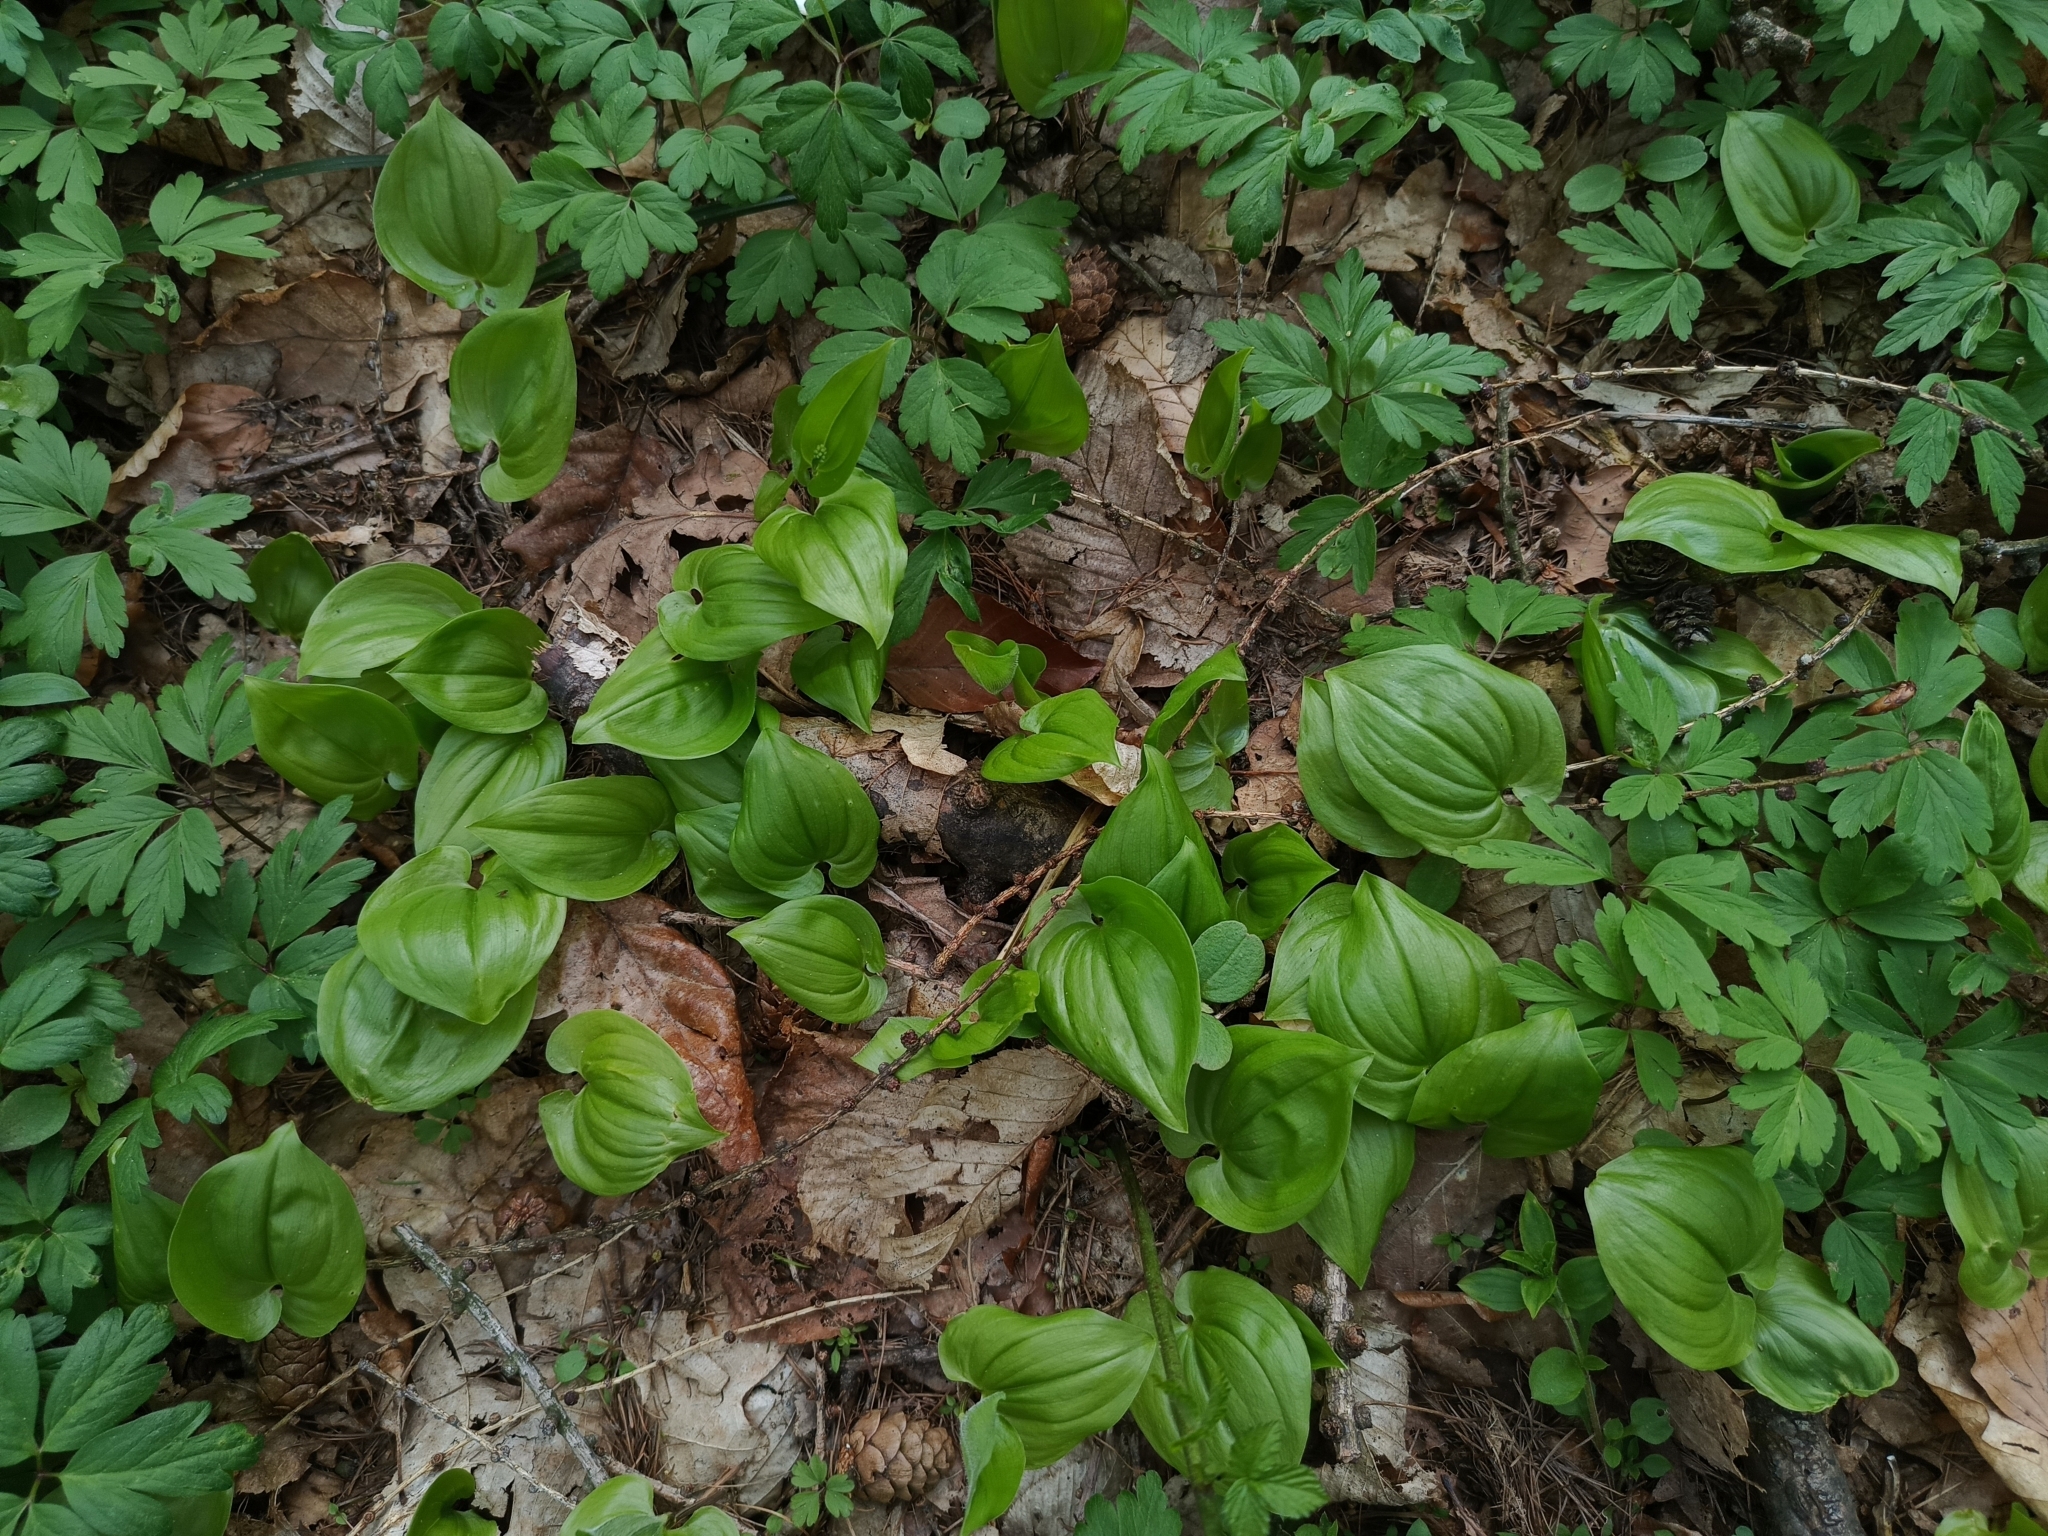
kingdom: Plantae
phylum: Tracheophyta
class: Liliopsida
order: Asparagales
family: Asparagaceae
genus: Maianthemum
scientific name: Maianthemum bifolium
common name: May lily
